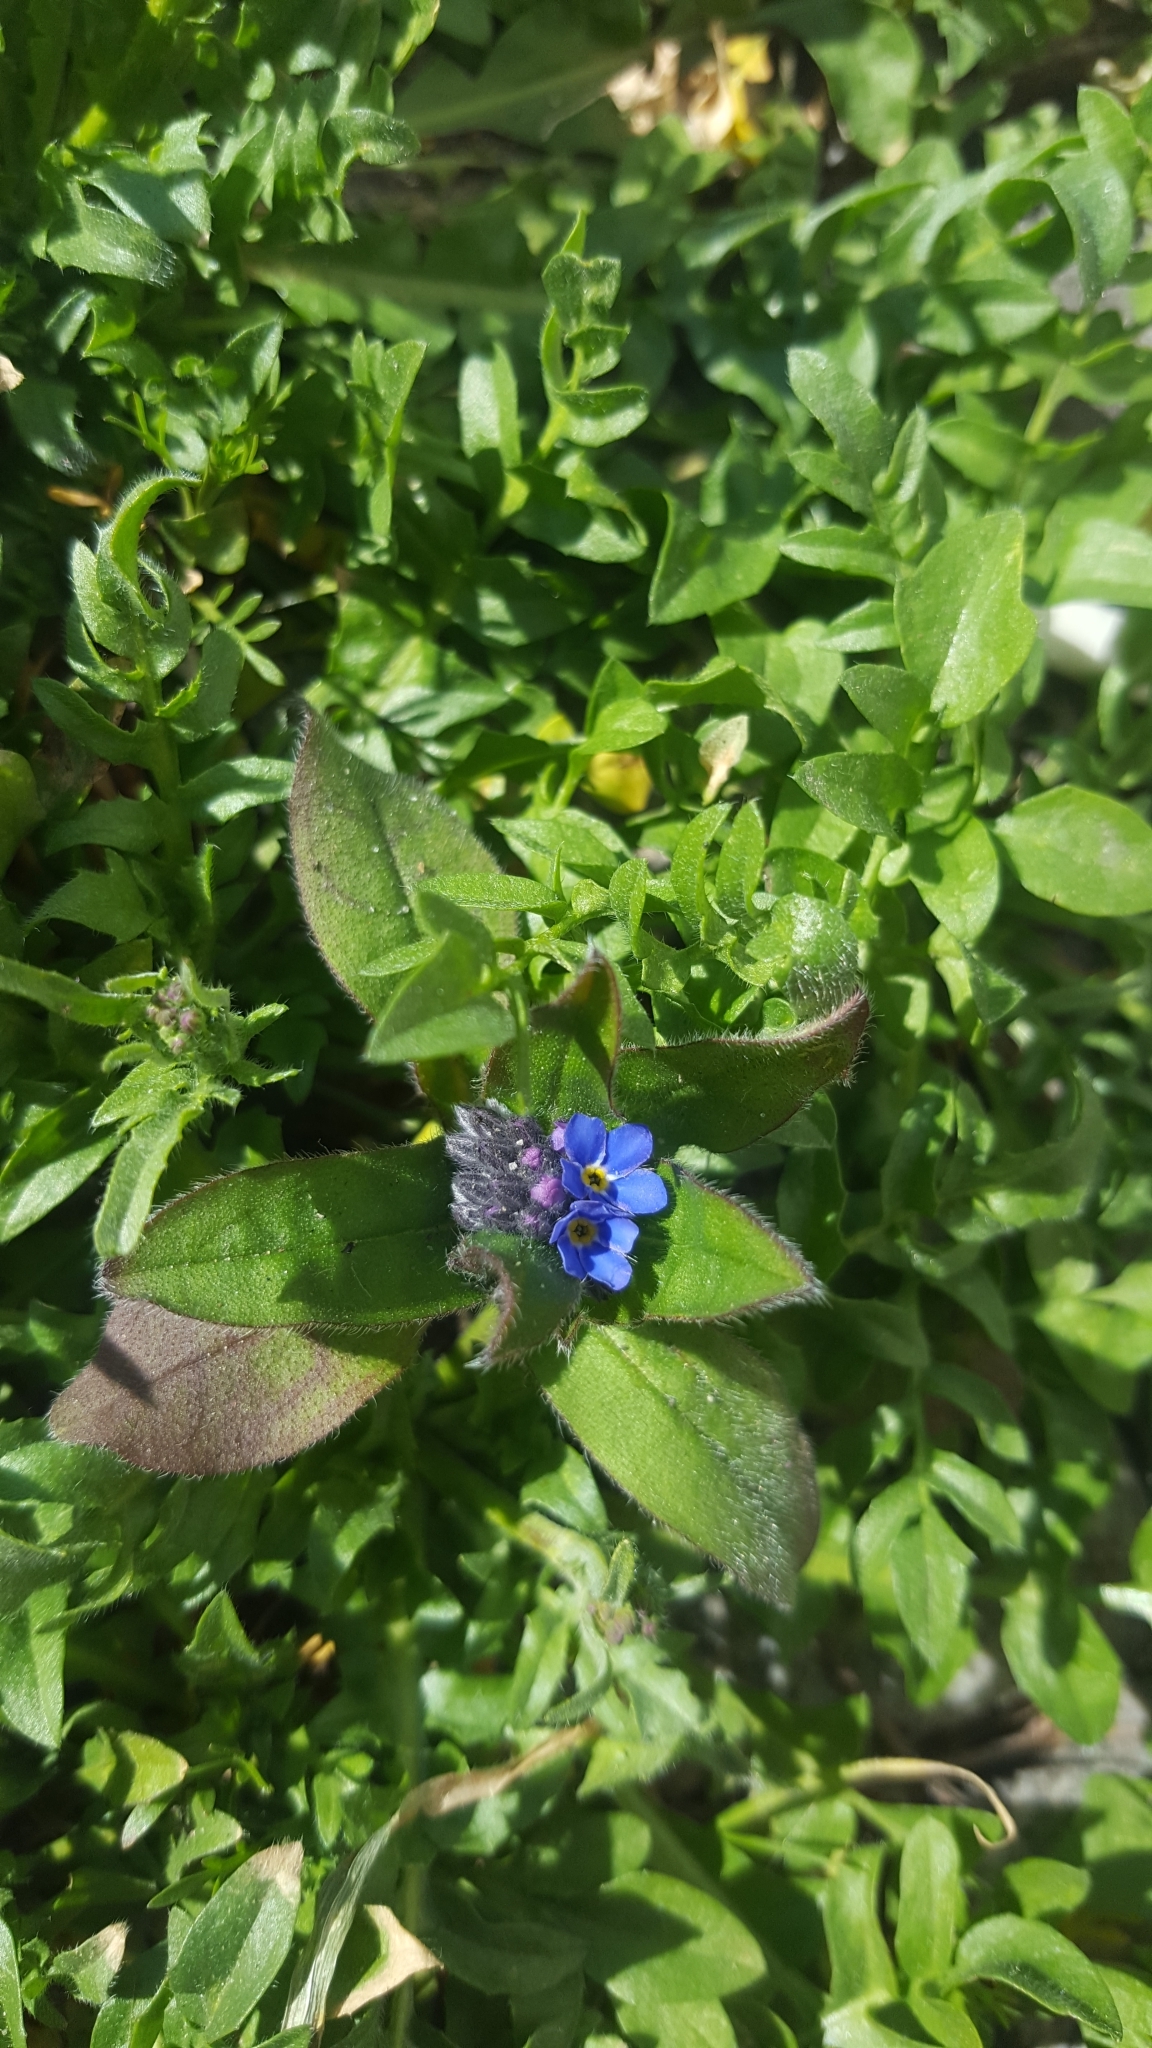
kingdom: Plantae
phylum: Tracheophyta
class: Magnoliopsida
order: Boraginales
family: Boraginaceae
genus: Myosotis
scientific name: Myosotis sylvatica
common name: Wood forget-me-not
